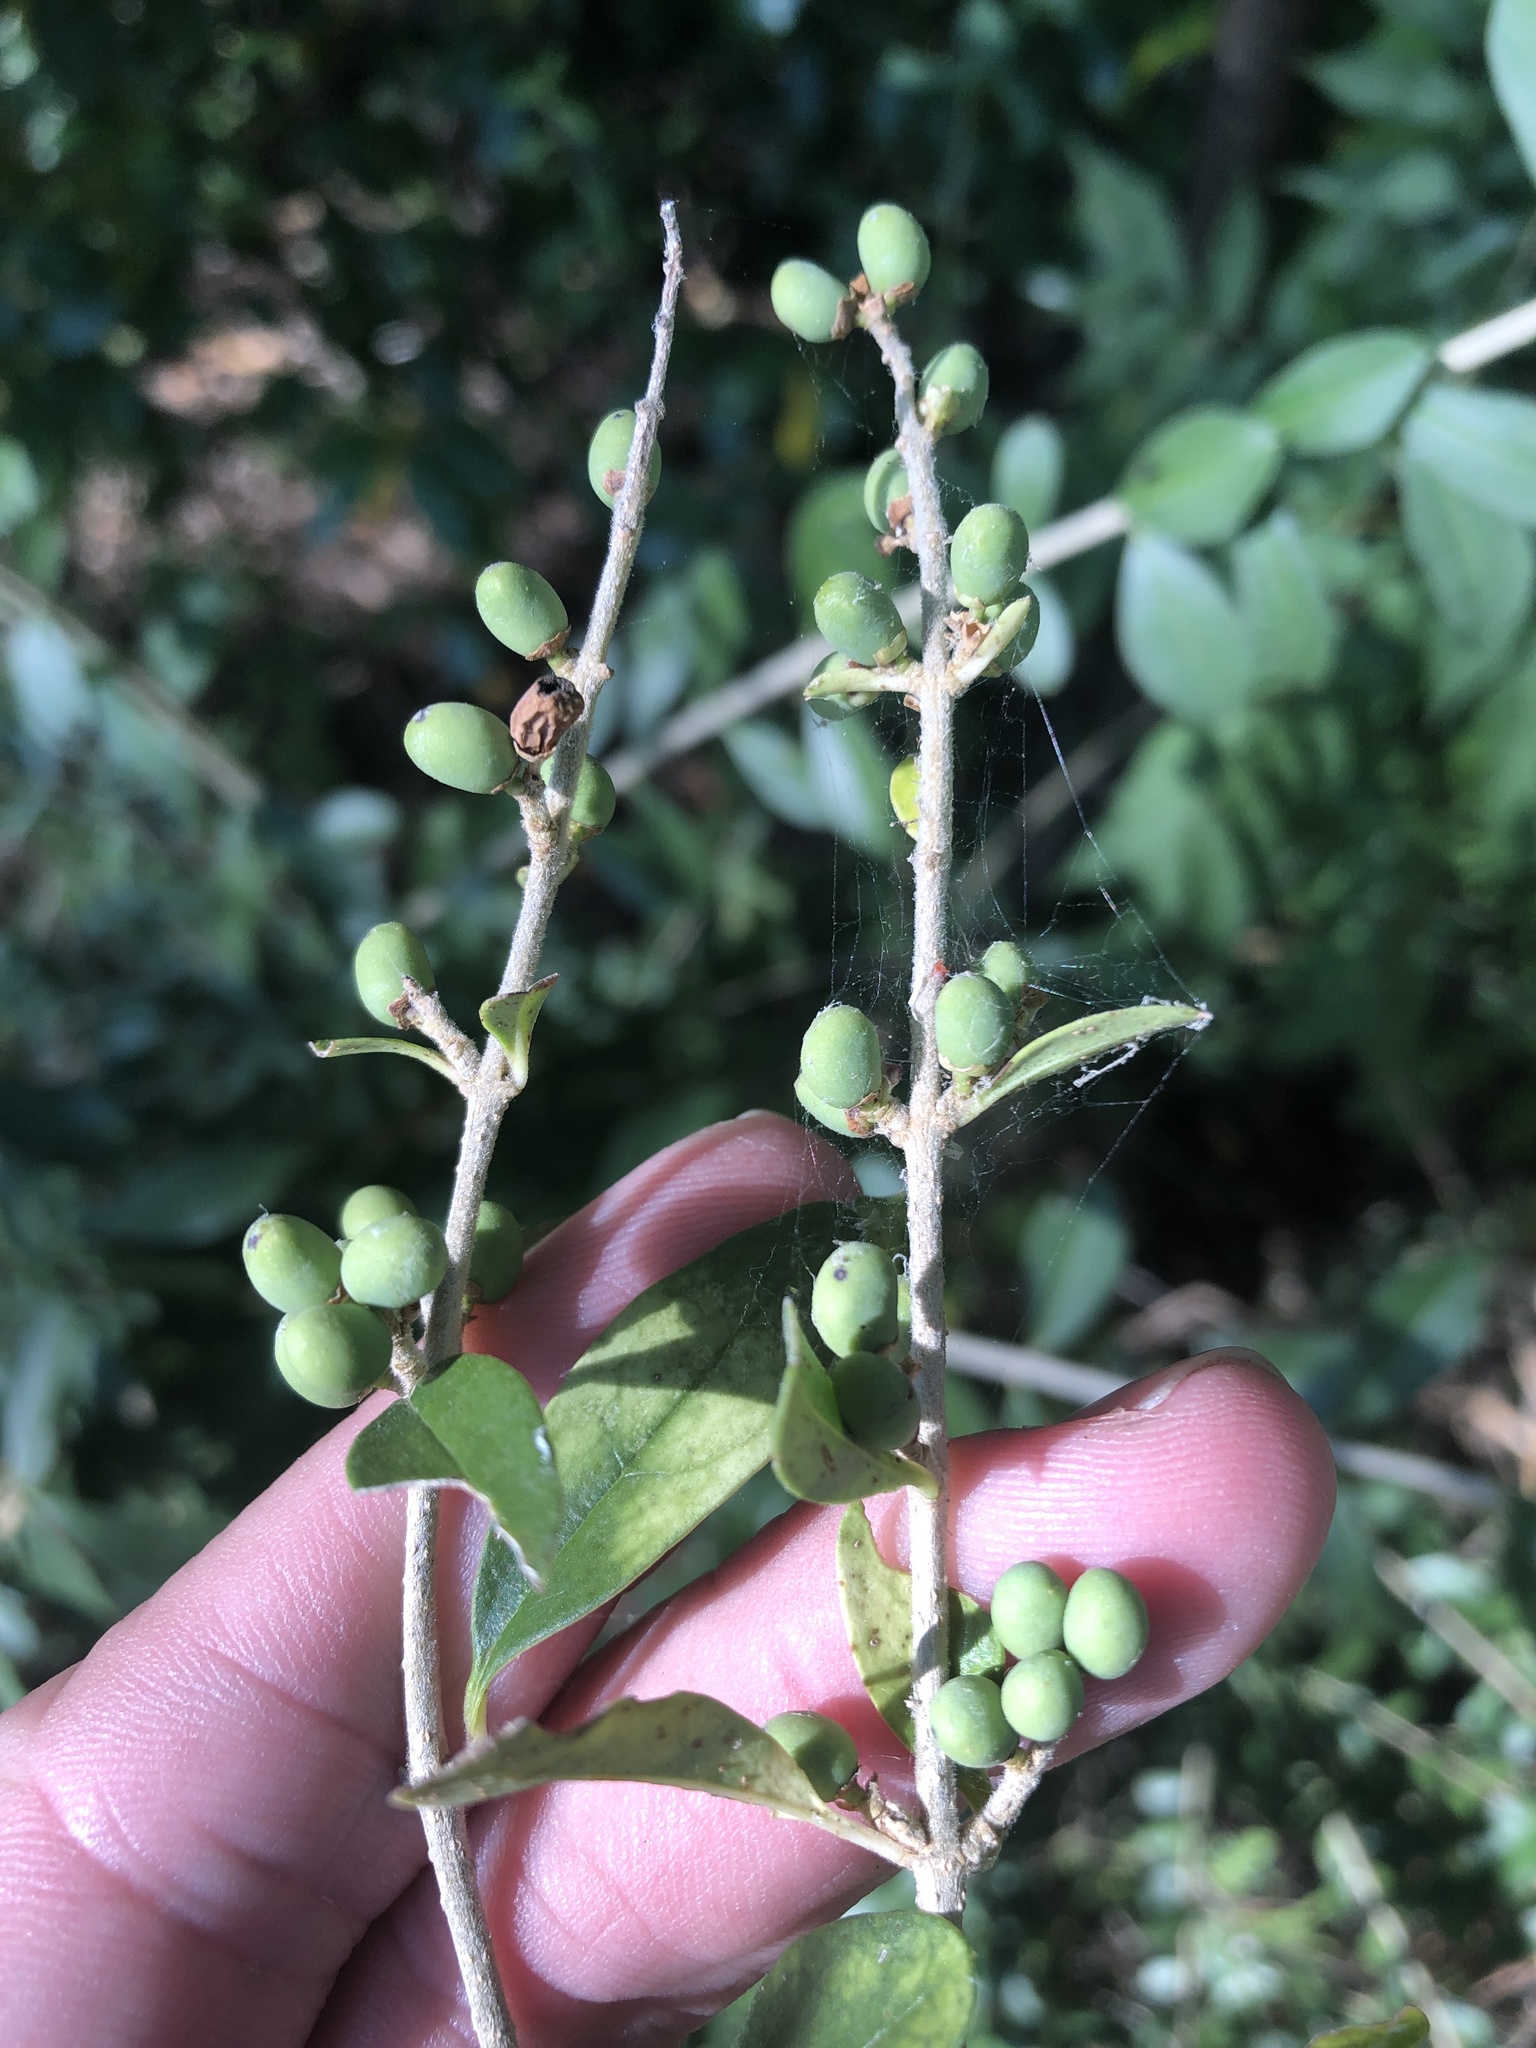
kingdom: Plantae
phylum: Tracheophyta
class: Magnoliopsida
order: Lamiales
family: Oleaceae
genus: Ligustrum
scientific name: Ligustrum quihoui
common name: Waxyleaf privet
